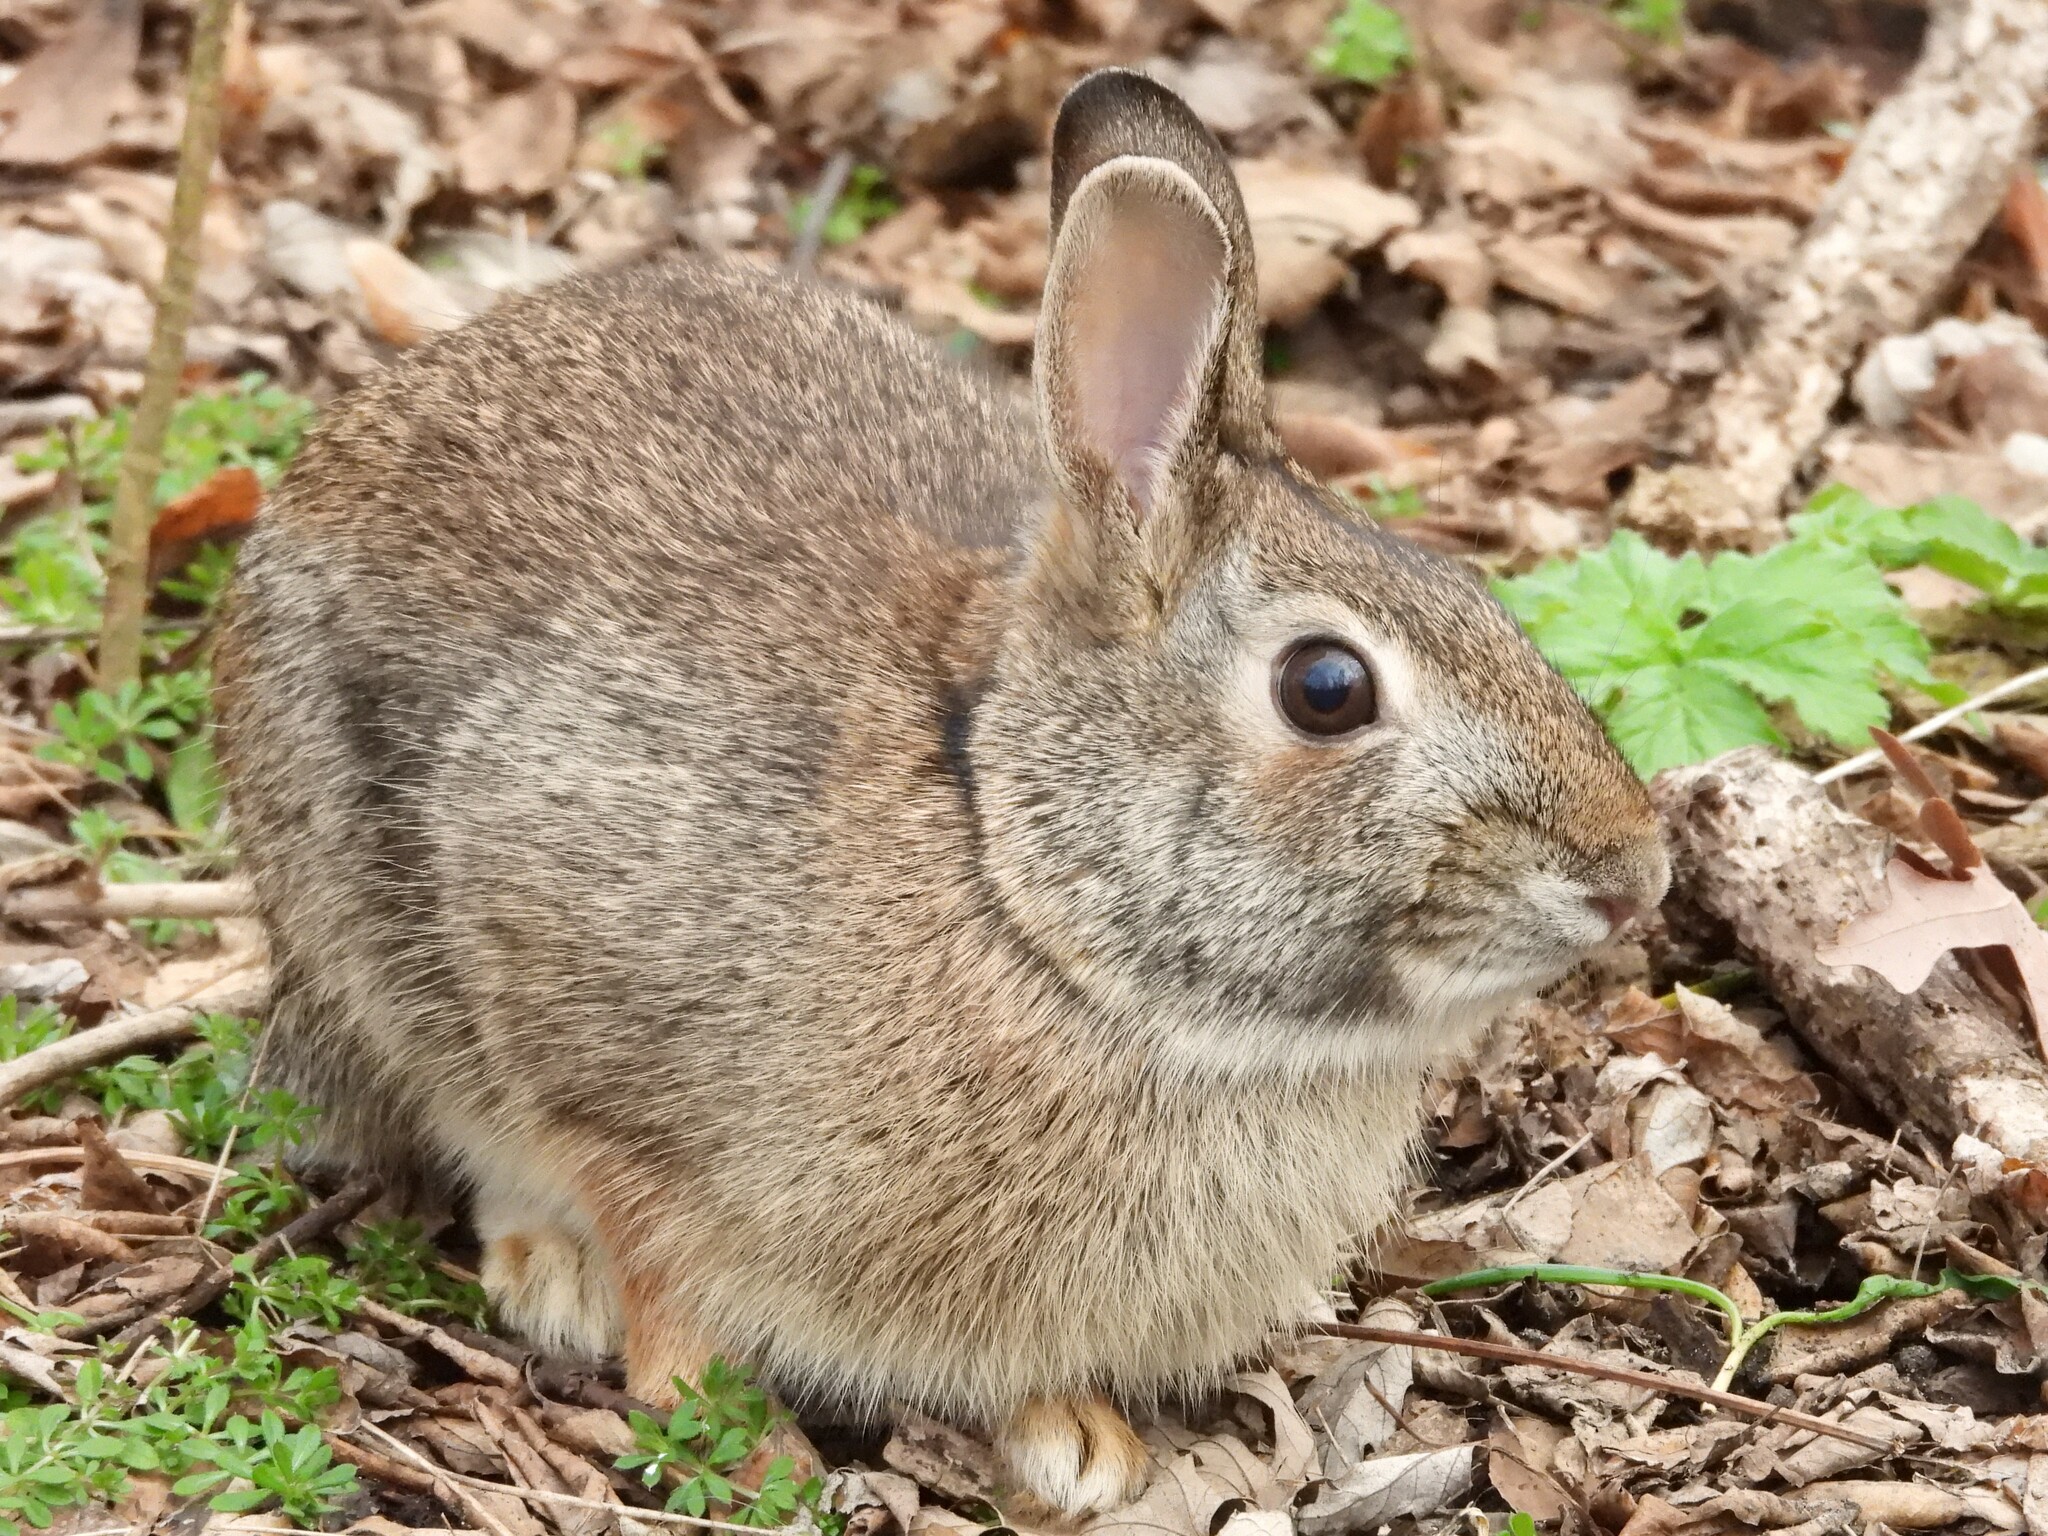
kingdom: Animalia
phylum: Chordata
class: Mammalia
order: Lagomorpha
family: Leporidae
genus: Sylvilagus
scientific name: Sylvilagus floridanus
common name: Eastern cottontail
